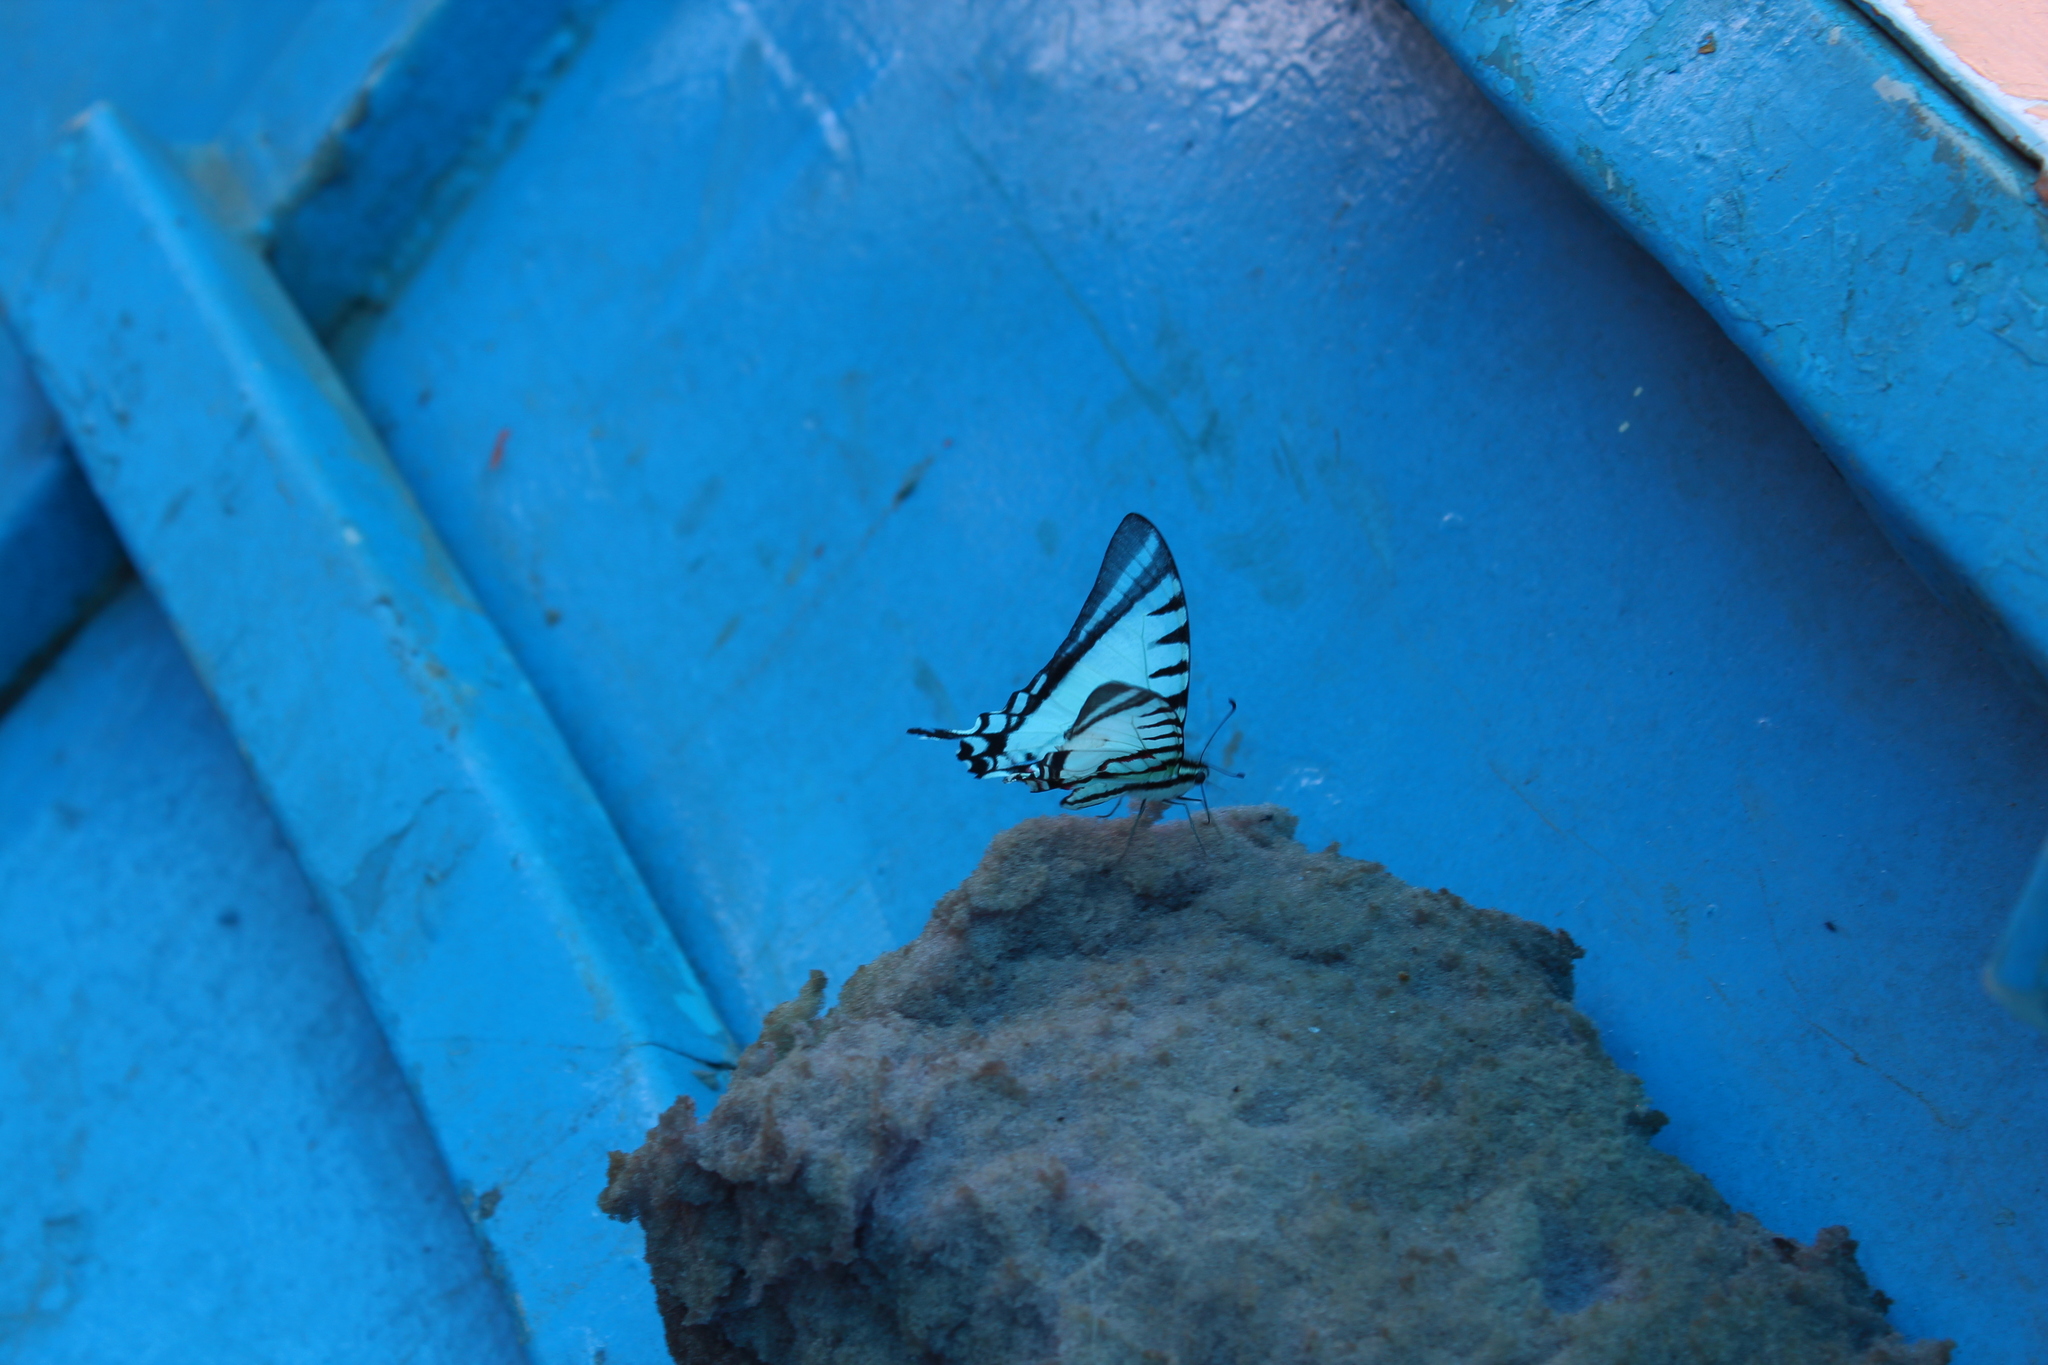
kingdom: Animalia
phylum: Arthropoda
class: Insecta
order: Lepidoptera
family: Papilionidae
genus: Eurytides
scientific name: Eurytides
